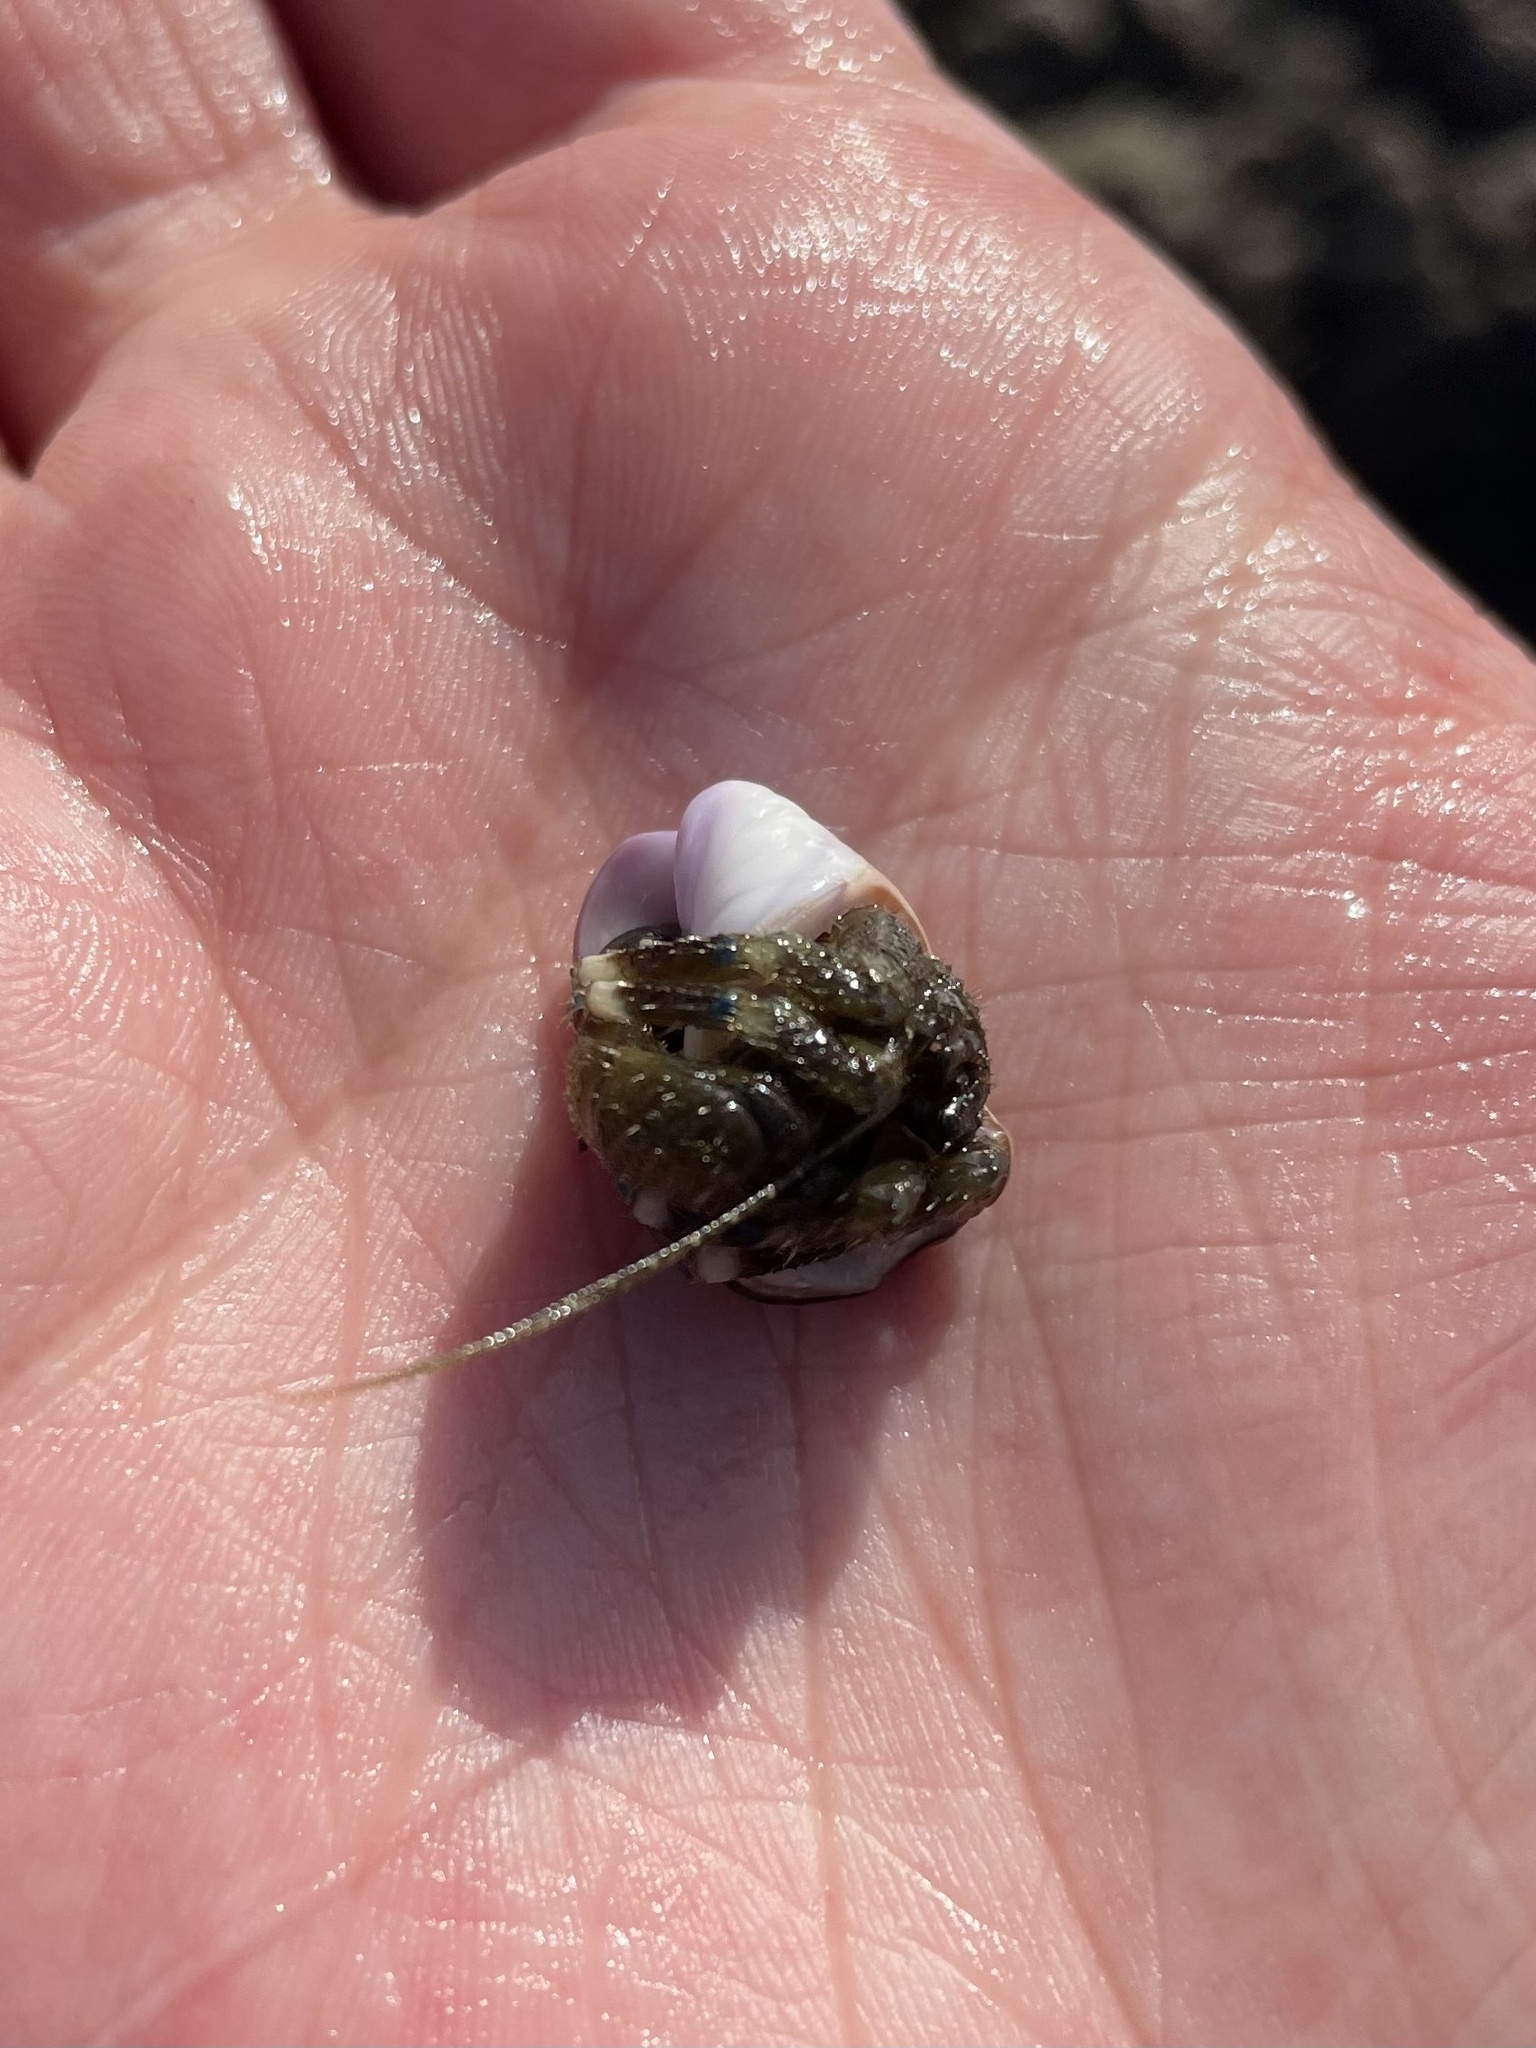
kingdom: Animalia
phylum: Arthropoda
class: Malacostraca
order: Decapoda
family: Paguridae
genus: Pagurus
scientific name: Pagurus hirsutiusculus
